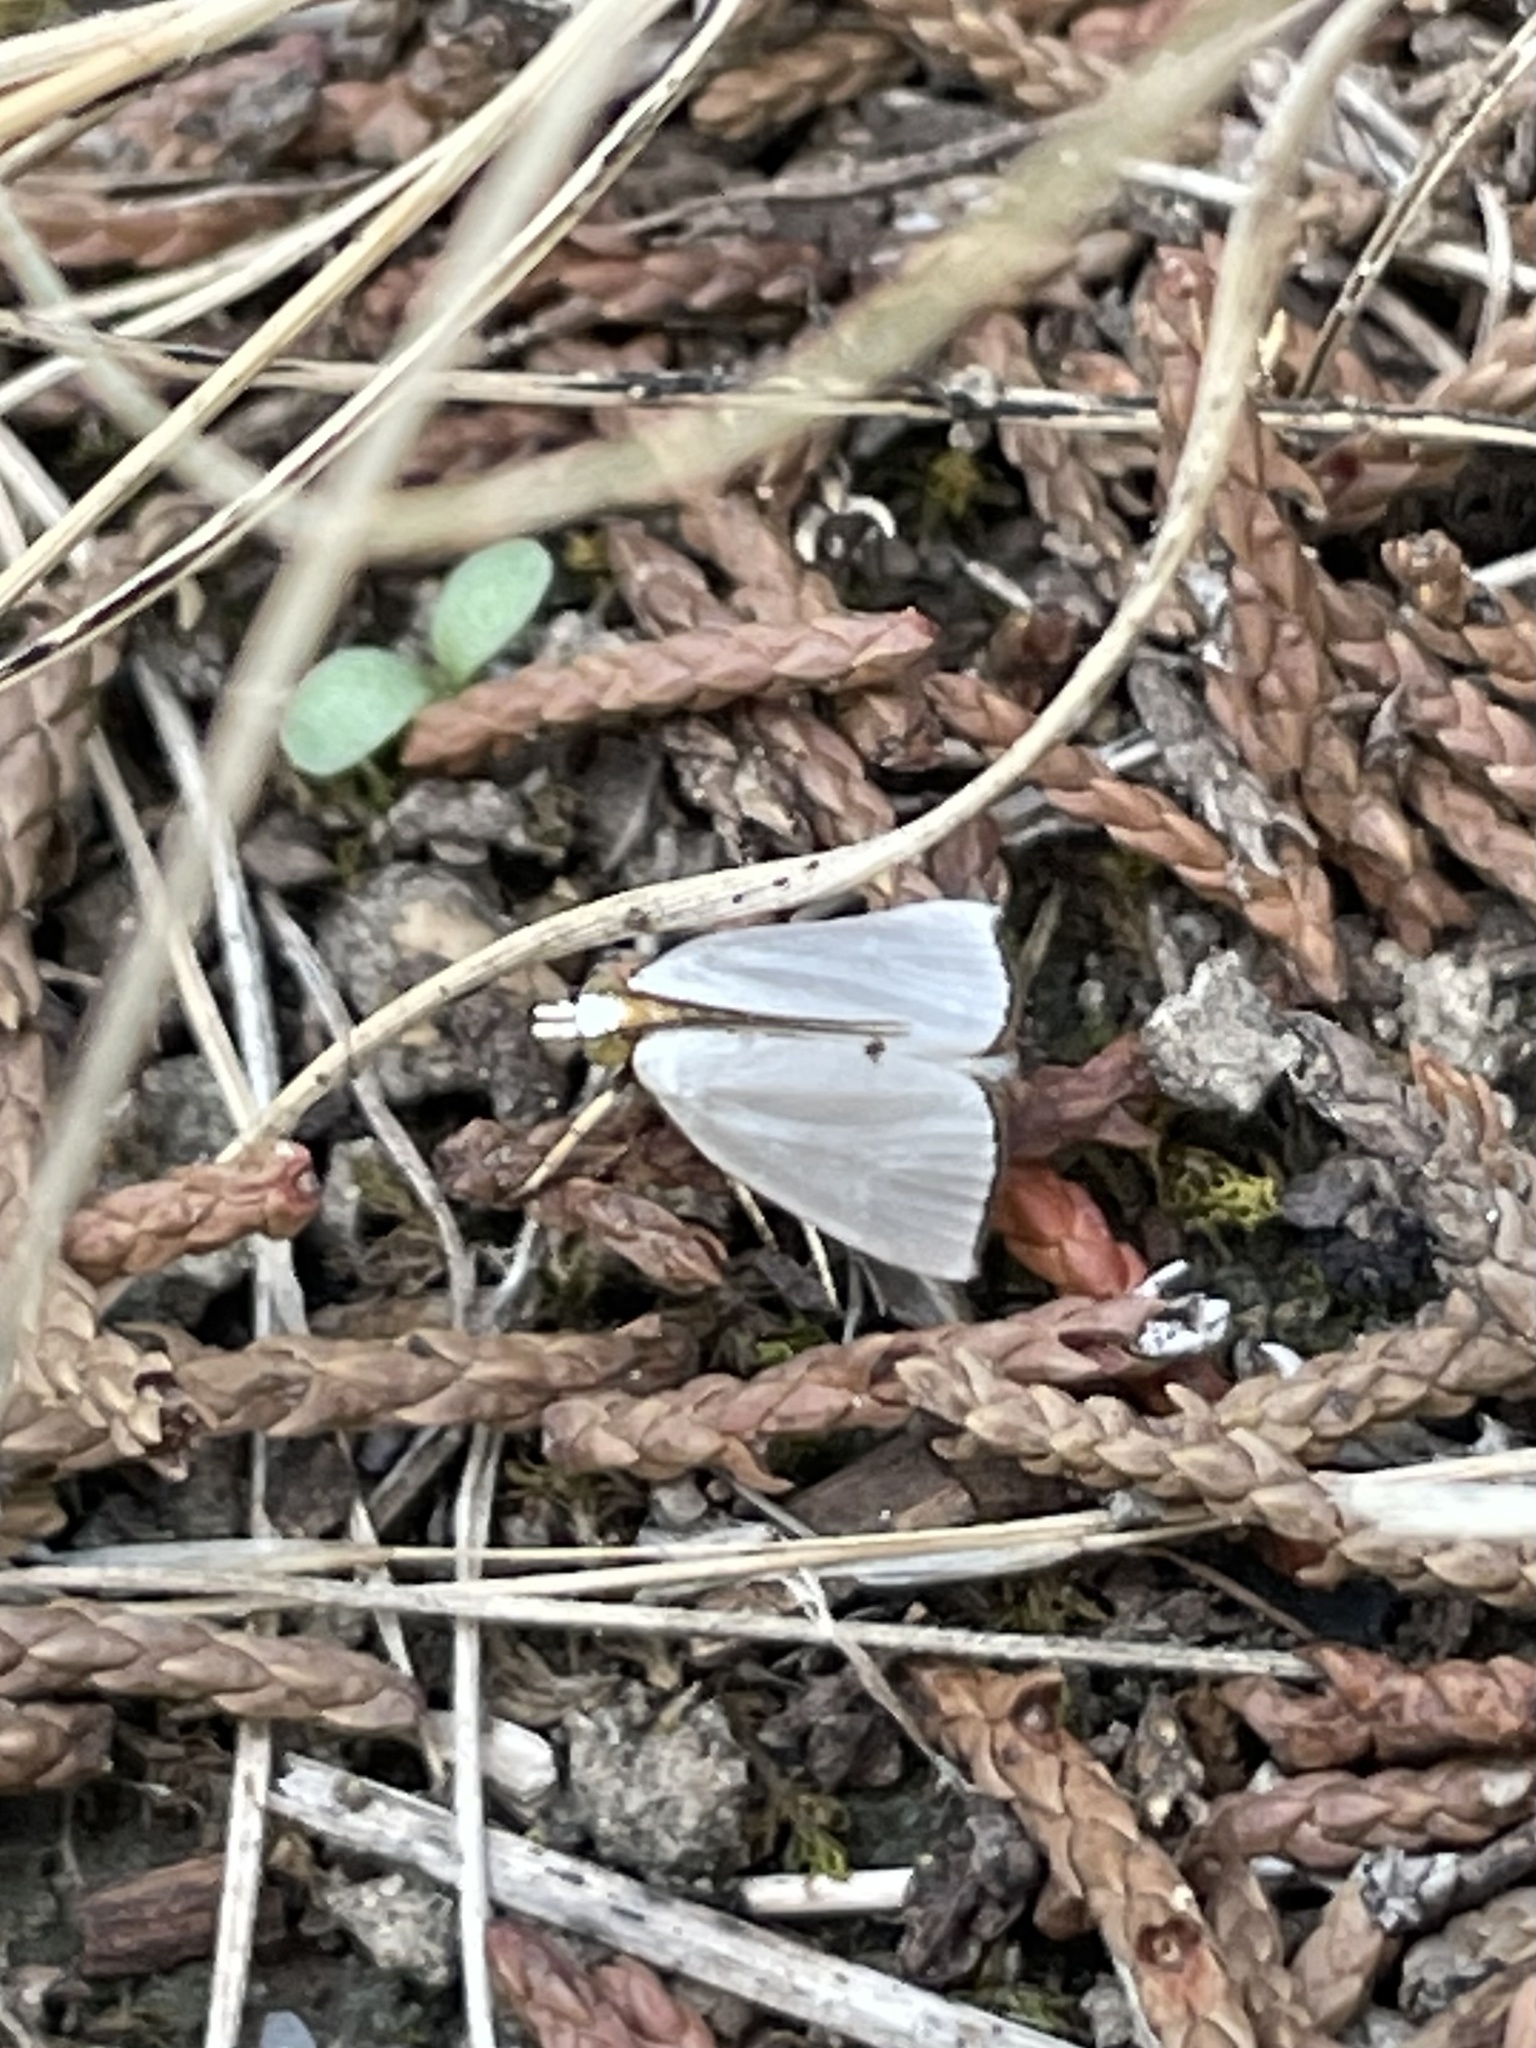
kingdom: Animalia
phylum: Arthropoda
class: Insecta
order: Lepidoptera
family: Crambidae
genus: Argyria
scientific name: Argyria nivalis
